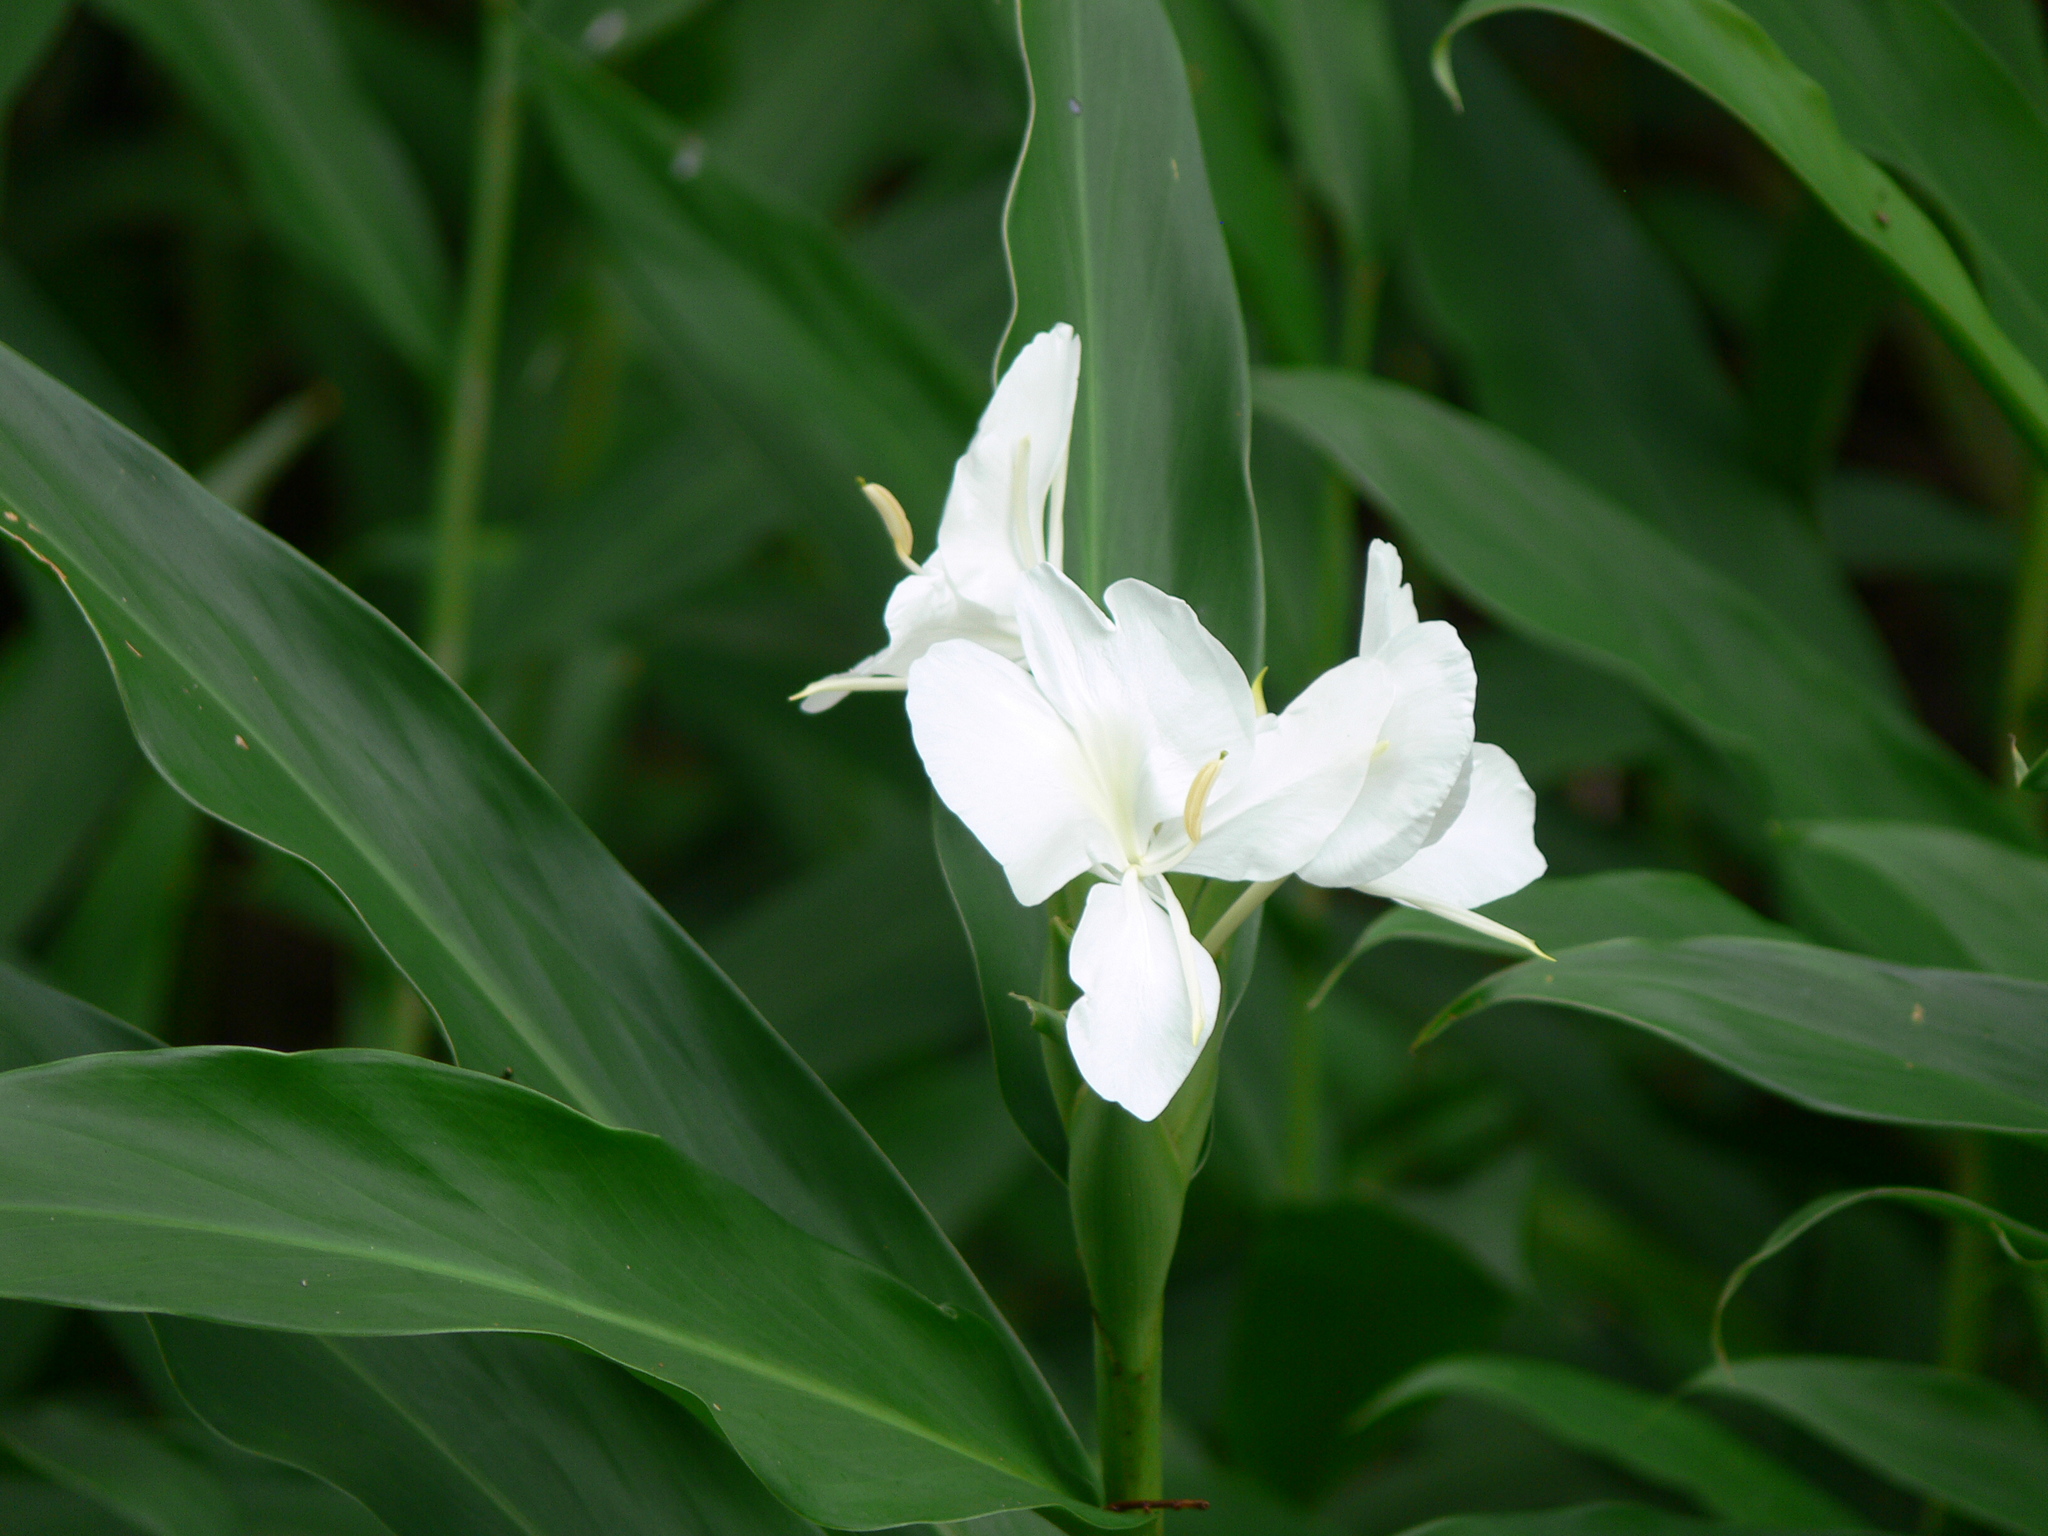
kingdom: Plantae
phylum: Tracheophyta
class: Liliopsida
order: Zingiberales
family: Zingiberaceae
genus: Hedychium
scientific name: Hedychium coronarium
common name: White garland-lily
